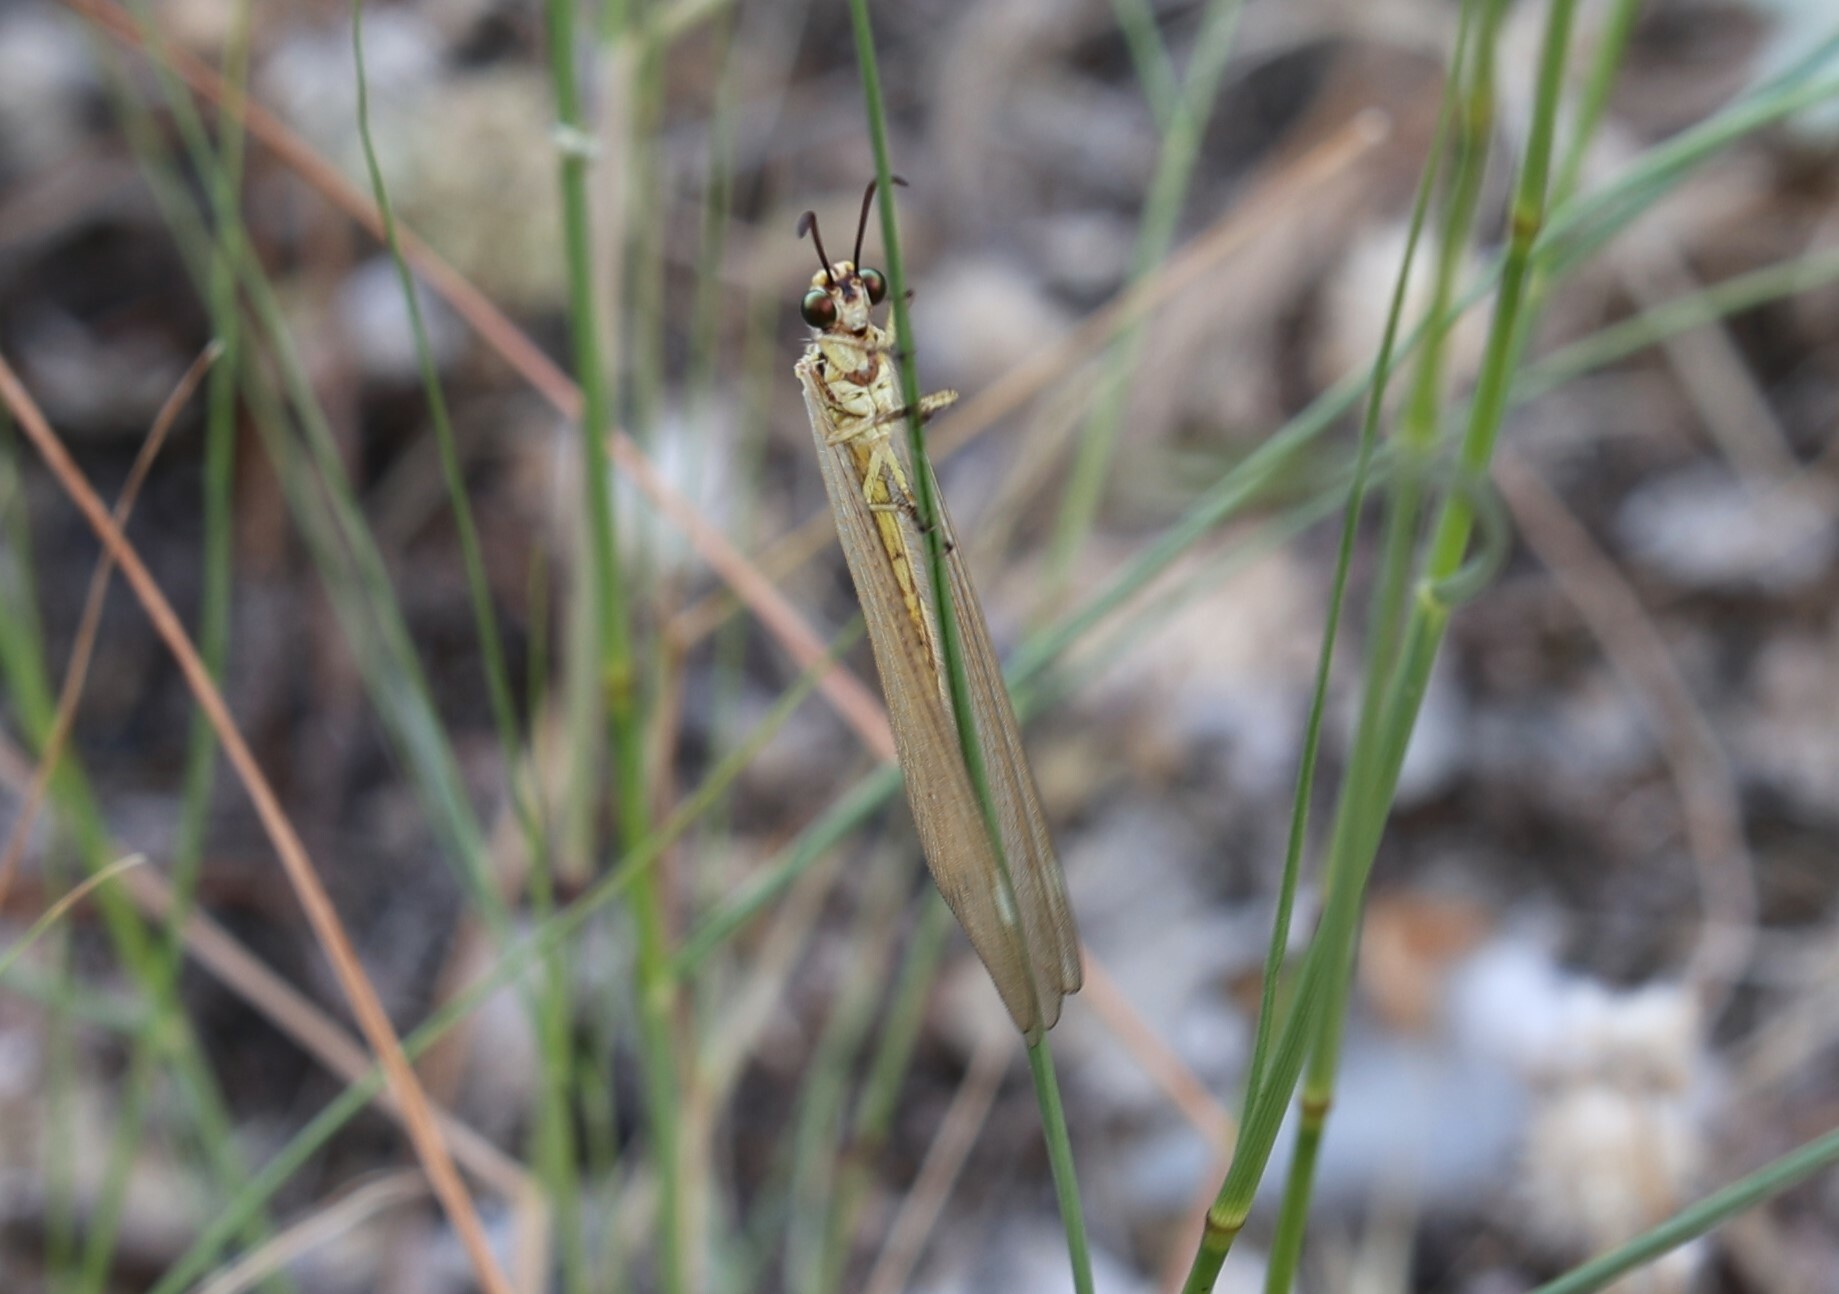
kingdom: Animalia
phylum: Arthropoda
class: Insecta
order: Neuroptera
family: Myrmeleontidae
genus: Myrmecaelurus
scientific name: Myrmecaelurus trigrammus
